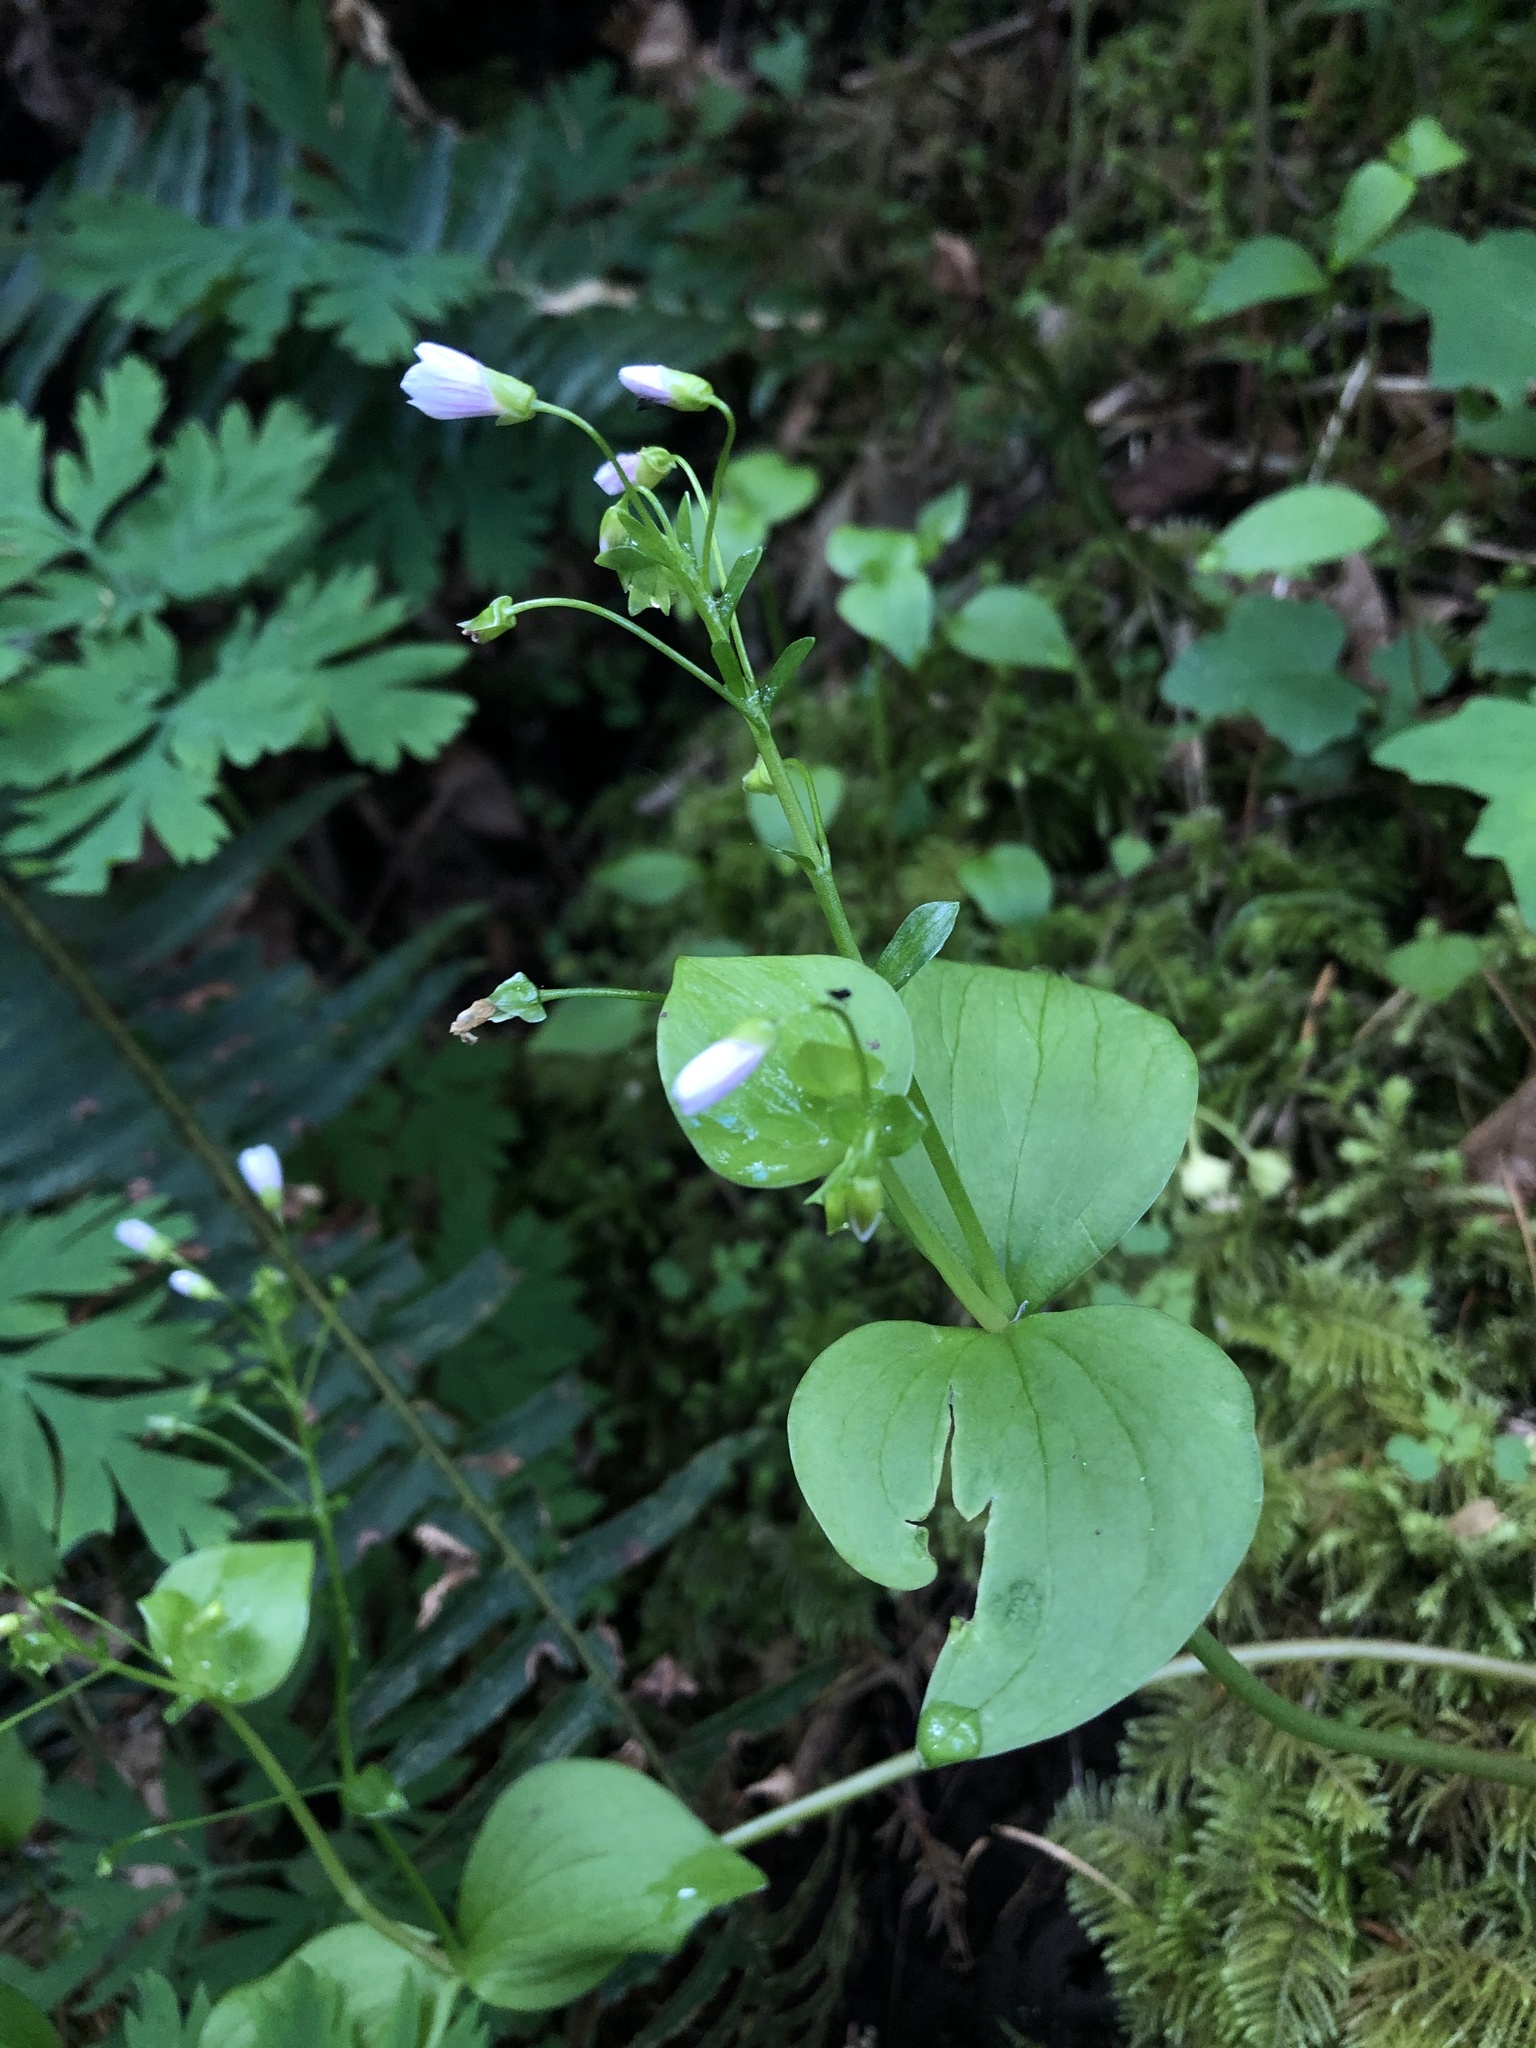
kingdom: Plantae
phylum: Tracheophyta
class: Magnoliopsida
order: Caryophyllales
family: Montiaceae
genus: Claytonia
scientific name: Claytonia sibirica
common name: Pink purslane
